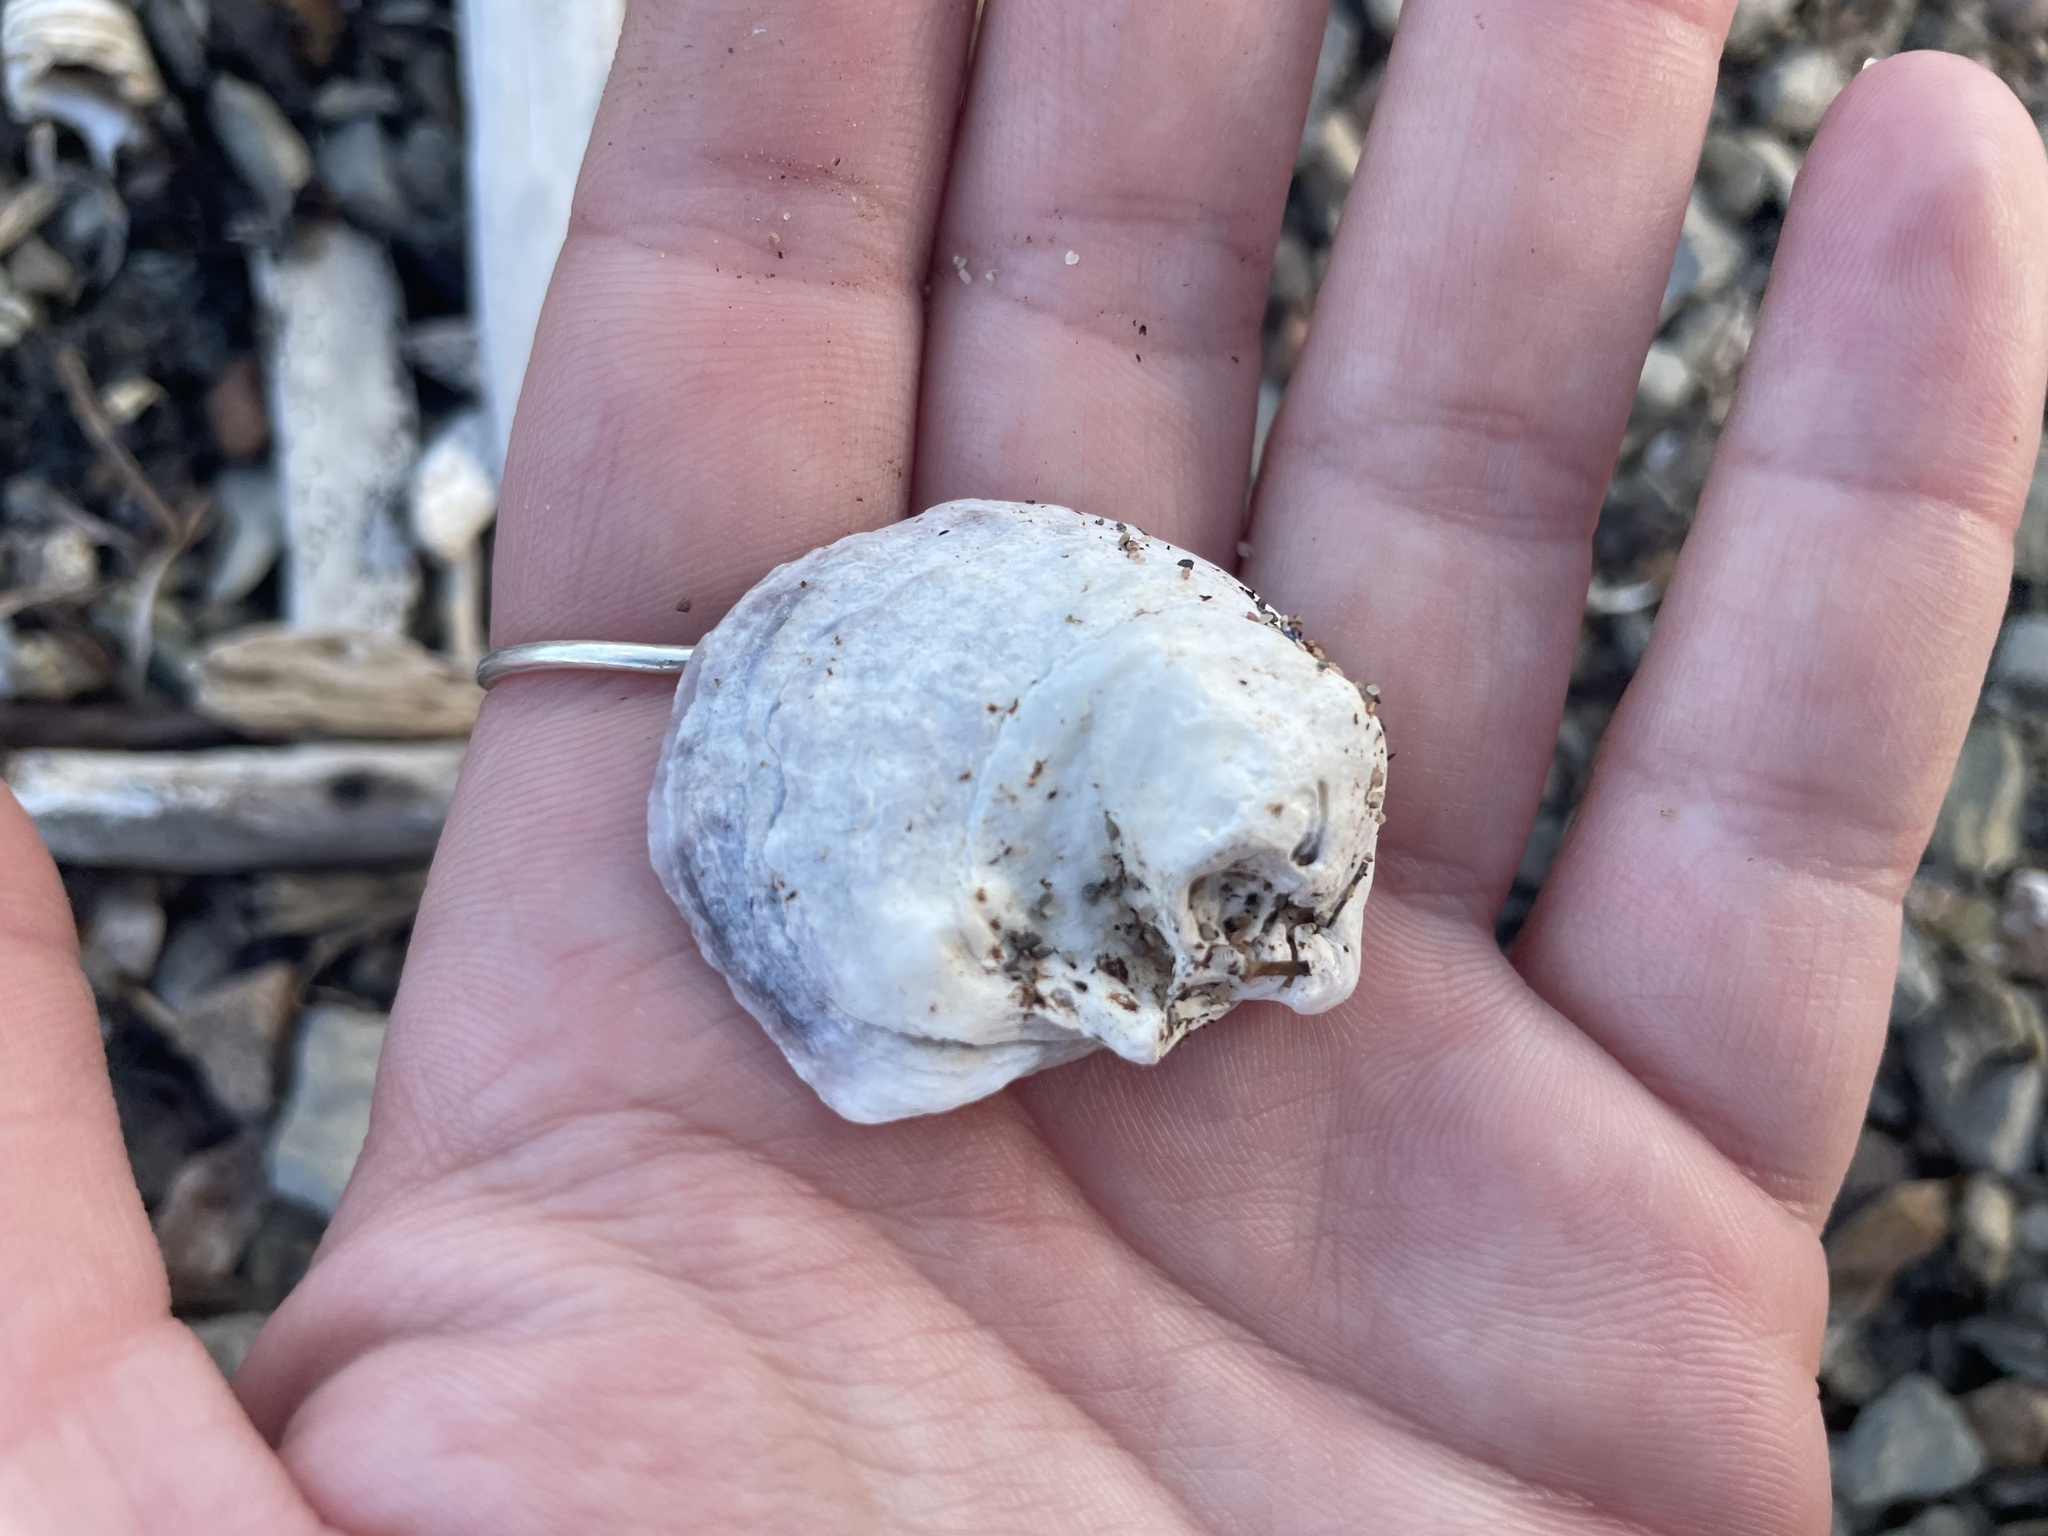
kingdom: Animalia
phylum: Mollusca
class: Bivalvia
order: Ostreida
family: Ostreidae
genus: Crassostrea
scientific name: Crassostrea virginica
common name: American oyster
